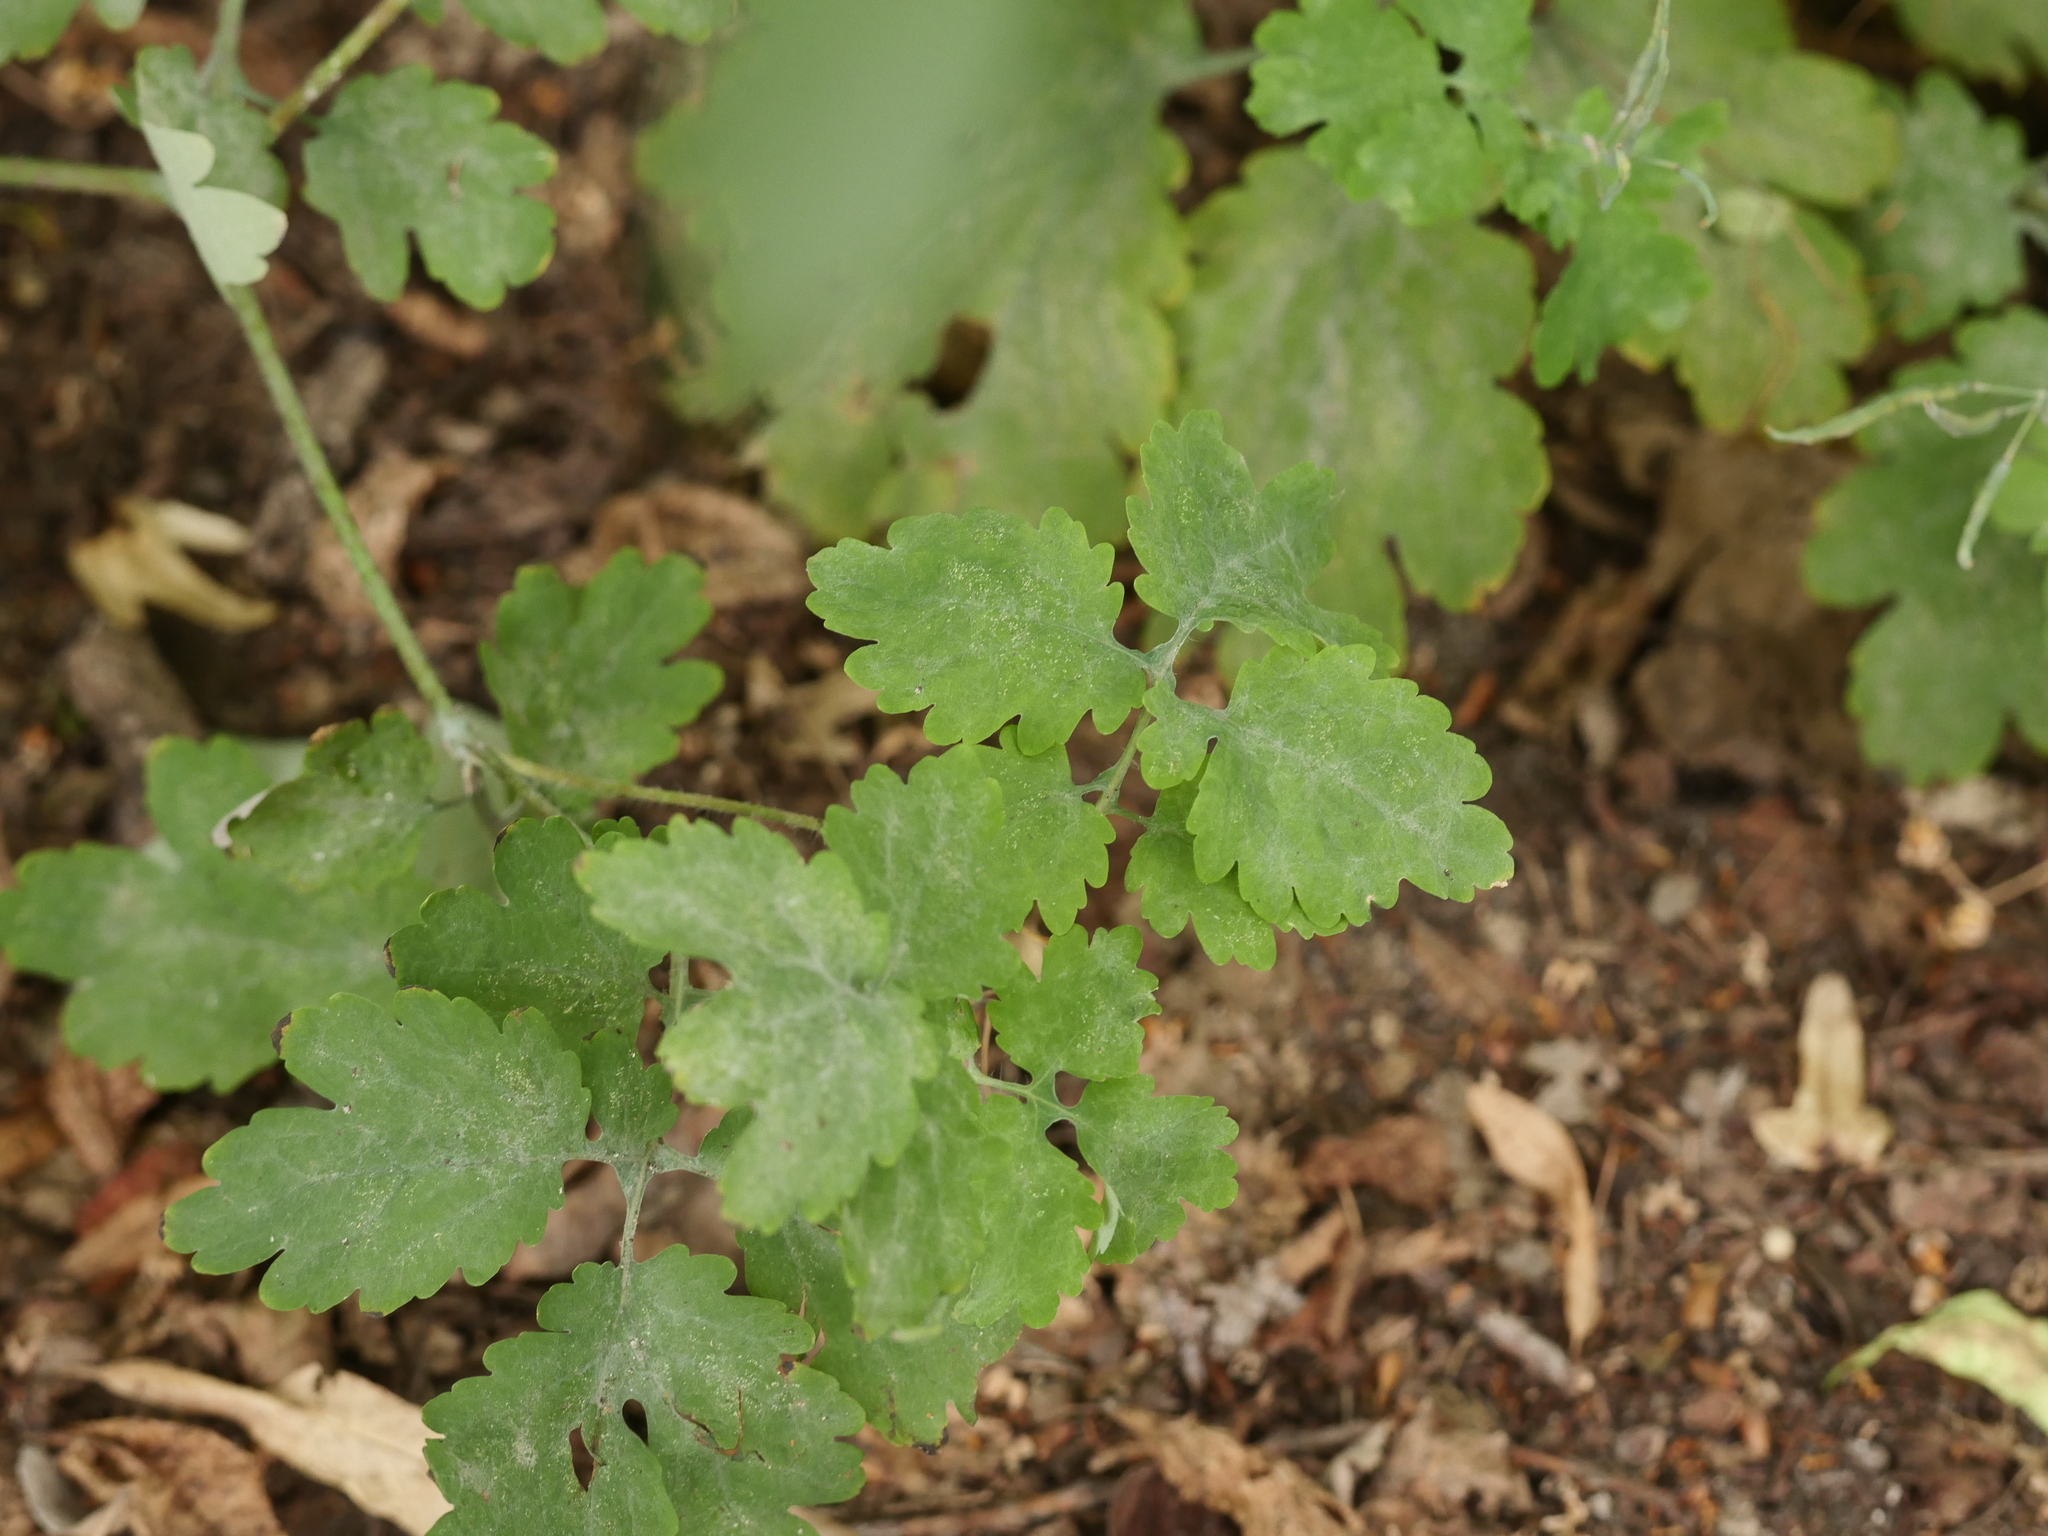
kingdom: Plantae
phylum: Tracheophyta
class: Magnoliopsida
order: Ranunculales
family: Papaveraceae
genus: Chelidonium
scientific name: Chelidonium majus
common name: Greater celandine
